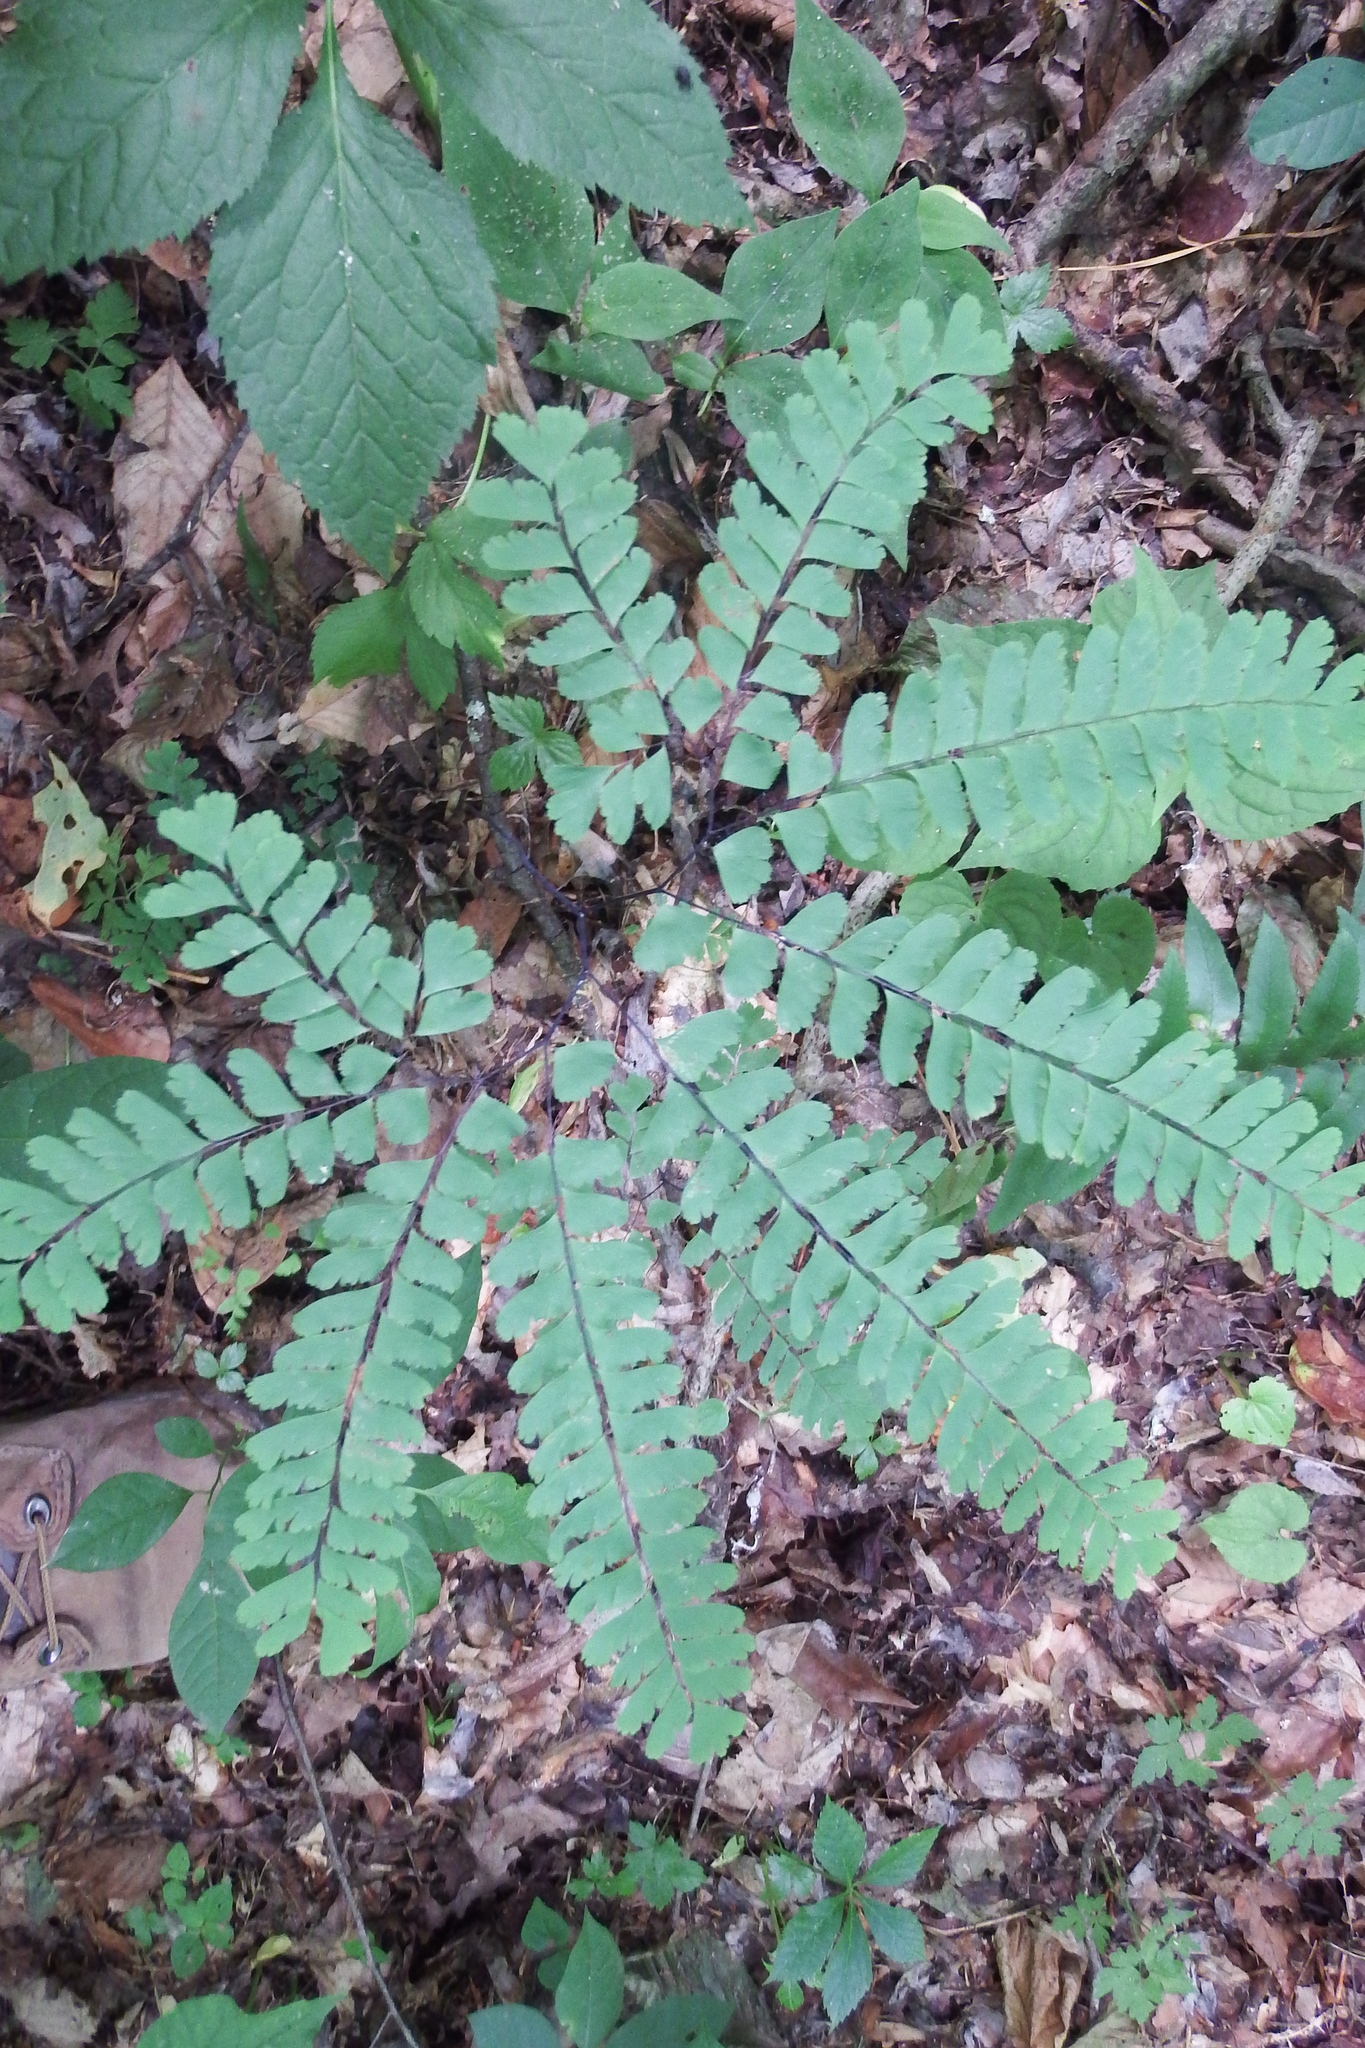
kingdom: Plantae
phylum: Tracheophyta
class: Polypodiopsida
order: Polypodiales
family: Pteridaceae
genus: Adiantum
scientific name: Adiantum pedatum
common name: Five-finger fern
